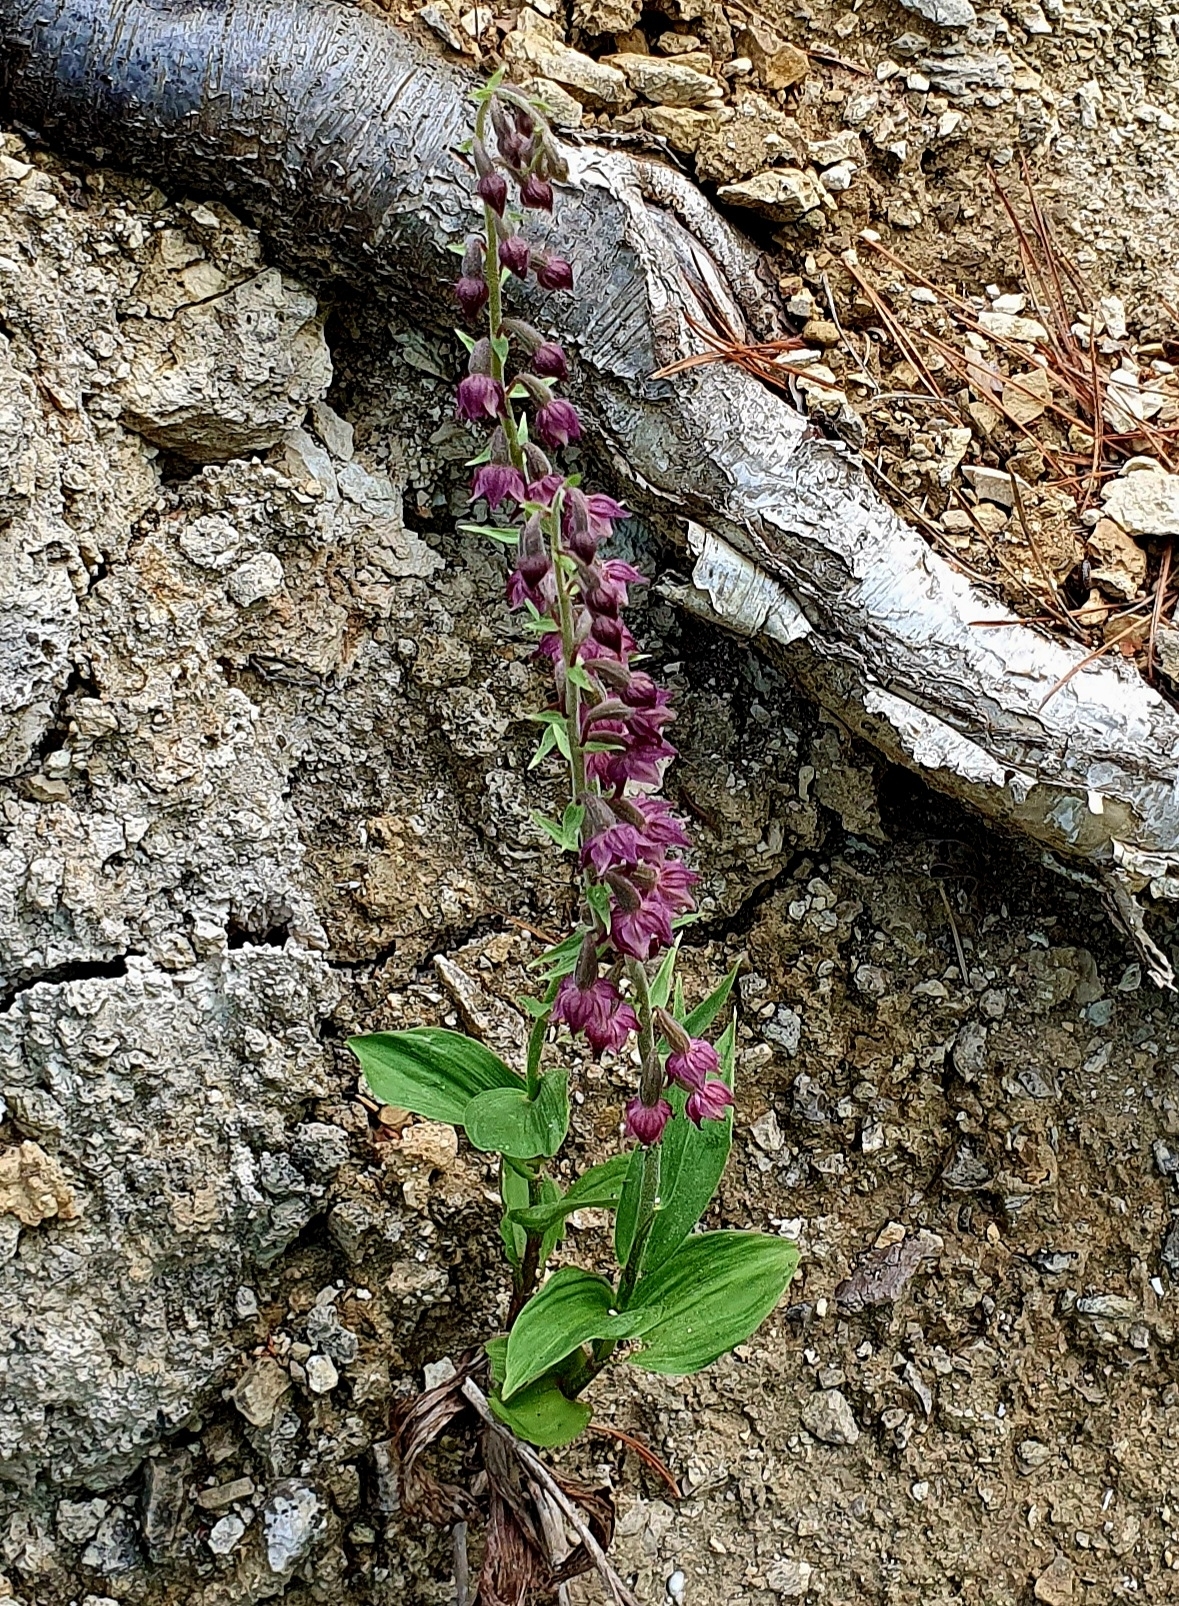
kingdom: Plantae
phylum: Tracheophyta
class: Liliopsida
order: Asparagales
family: Orchidaceae
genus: Epipactis
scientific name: Epipactis atrorubens
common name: Dark-red helleborine
